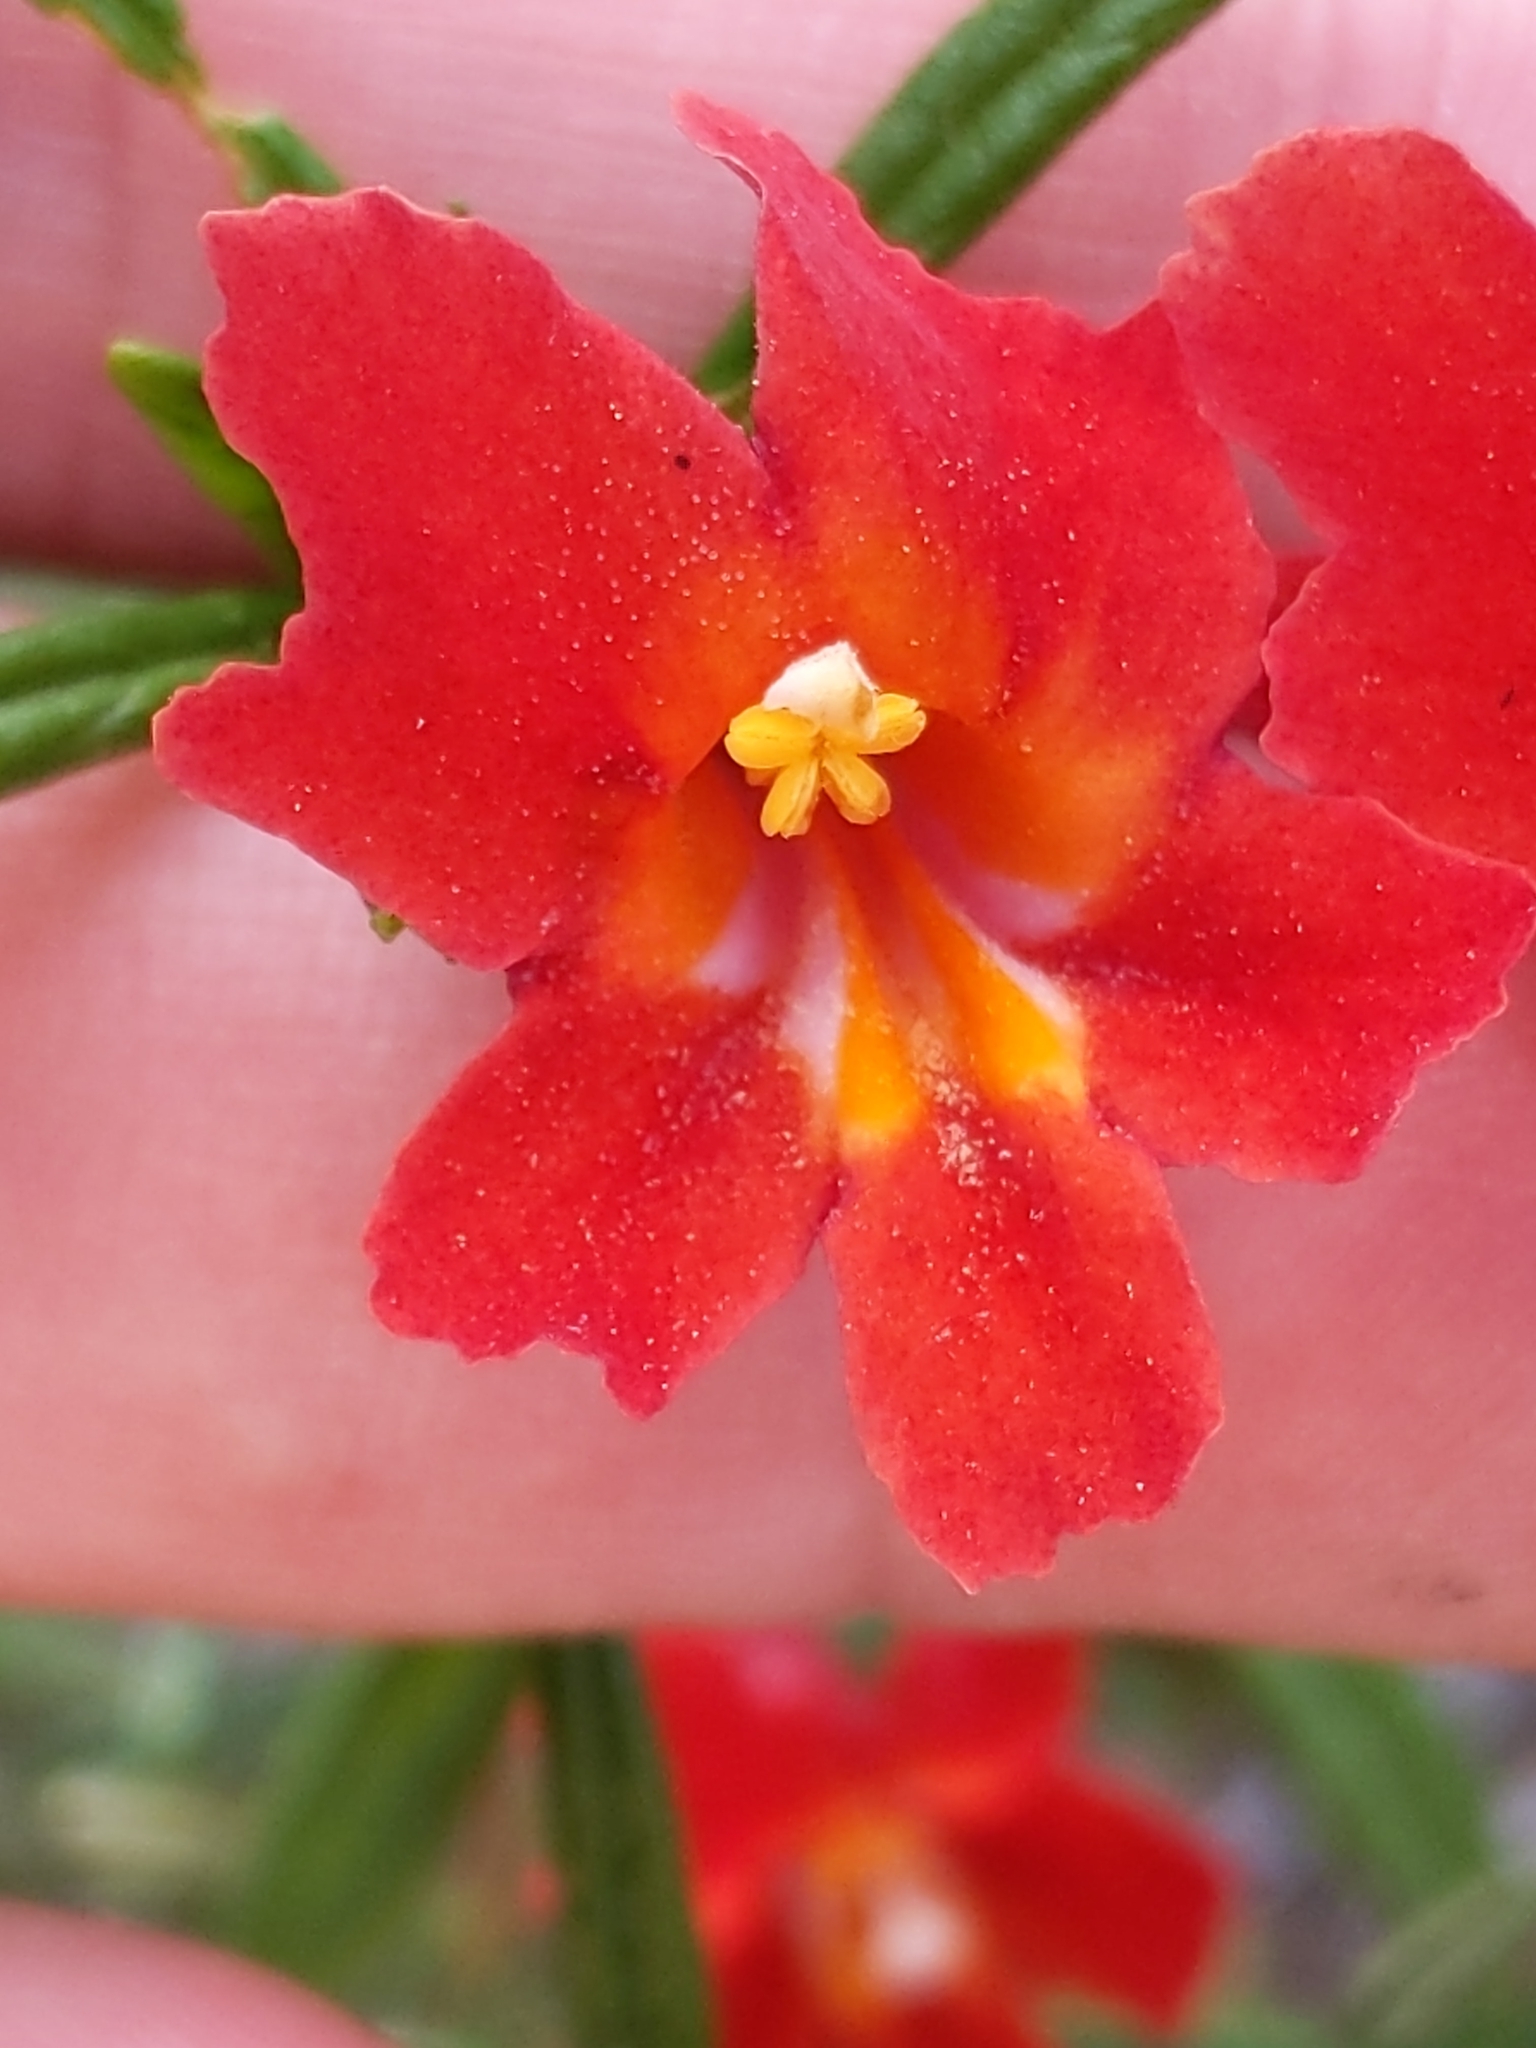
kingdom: Plantae
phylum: Tracheophyta
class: Magnoliopsida
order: Lamiales
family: Phrymaceae
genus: Diplacus
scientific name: Diplacus puniceus
